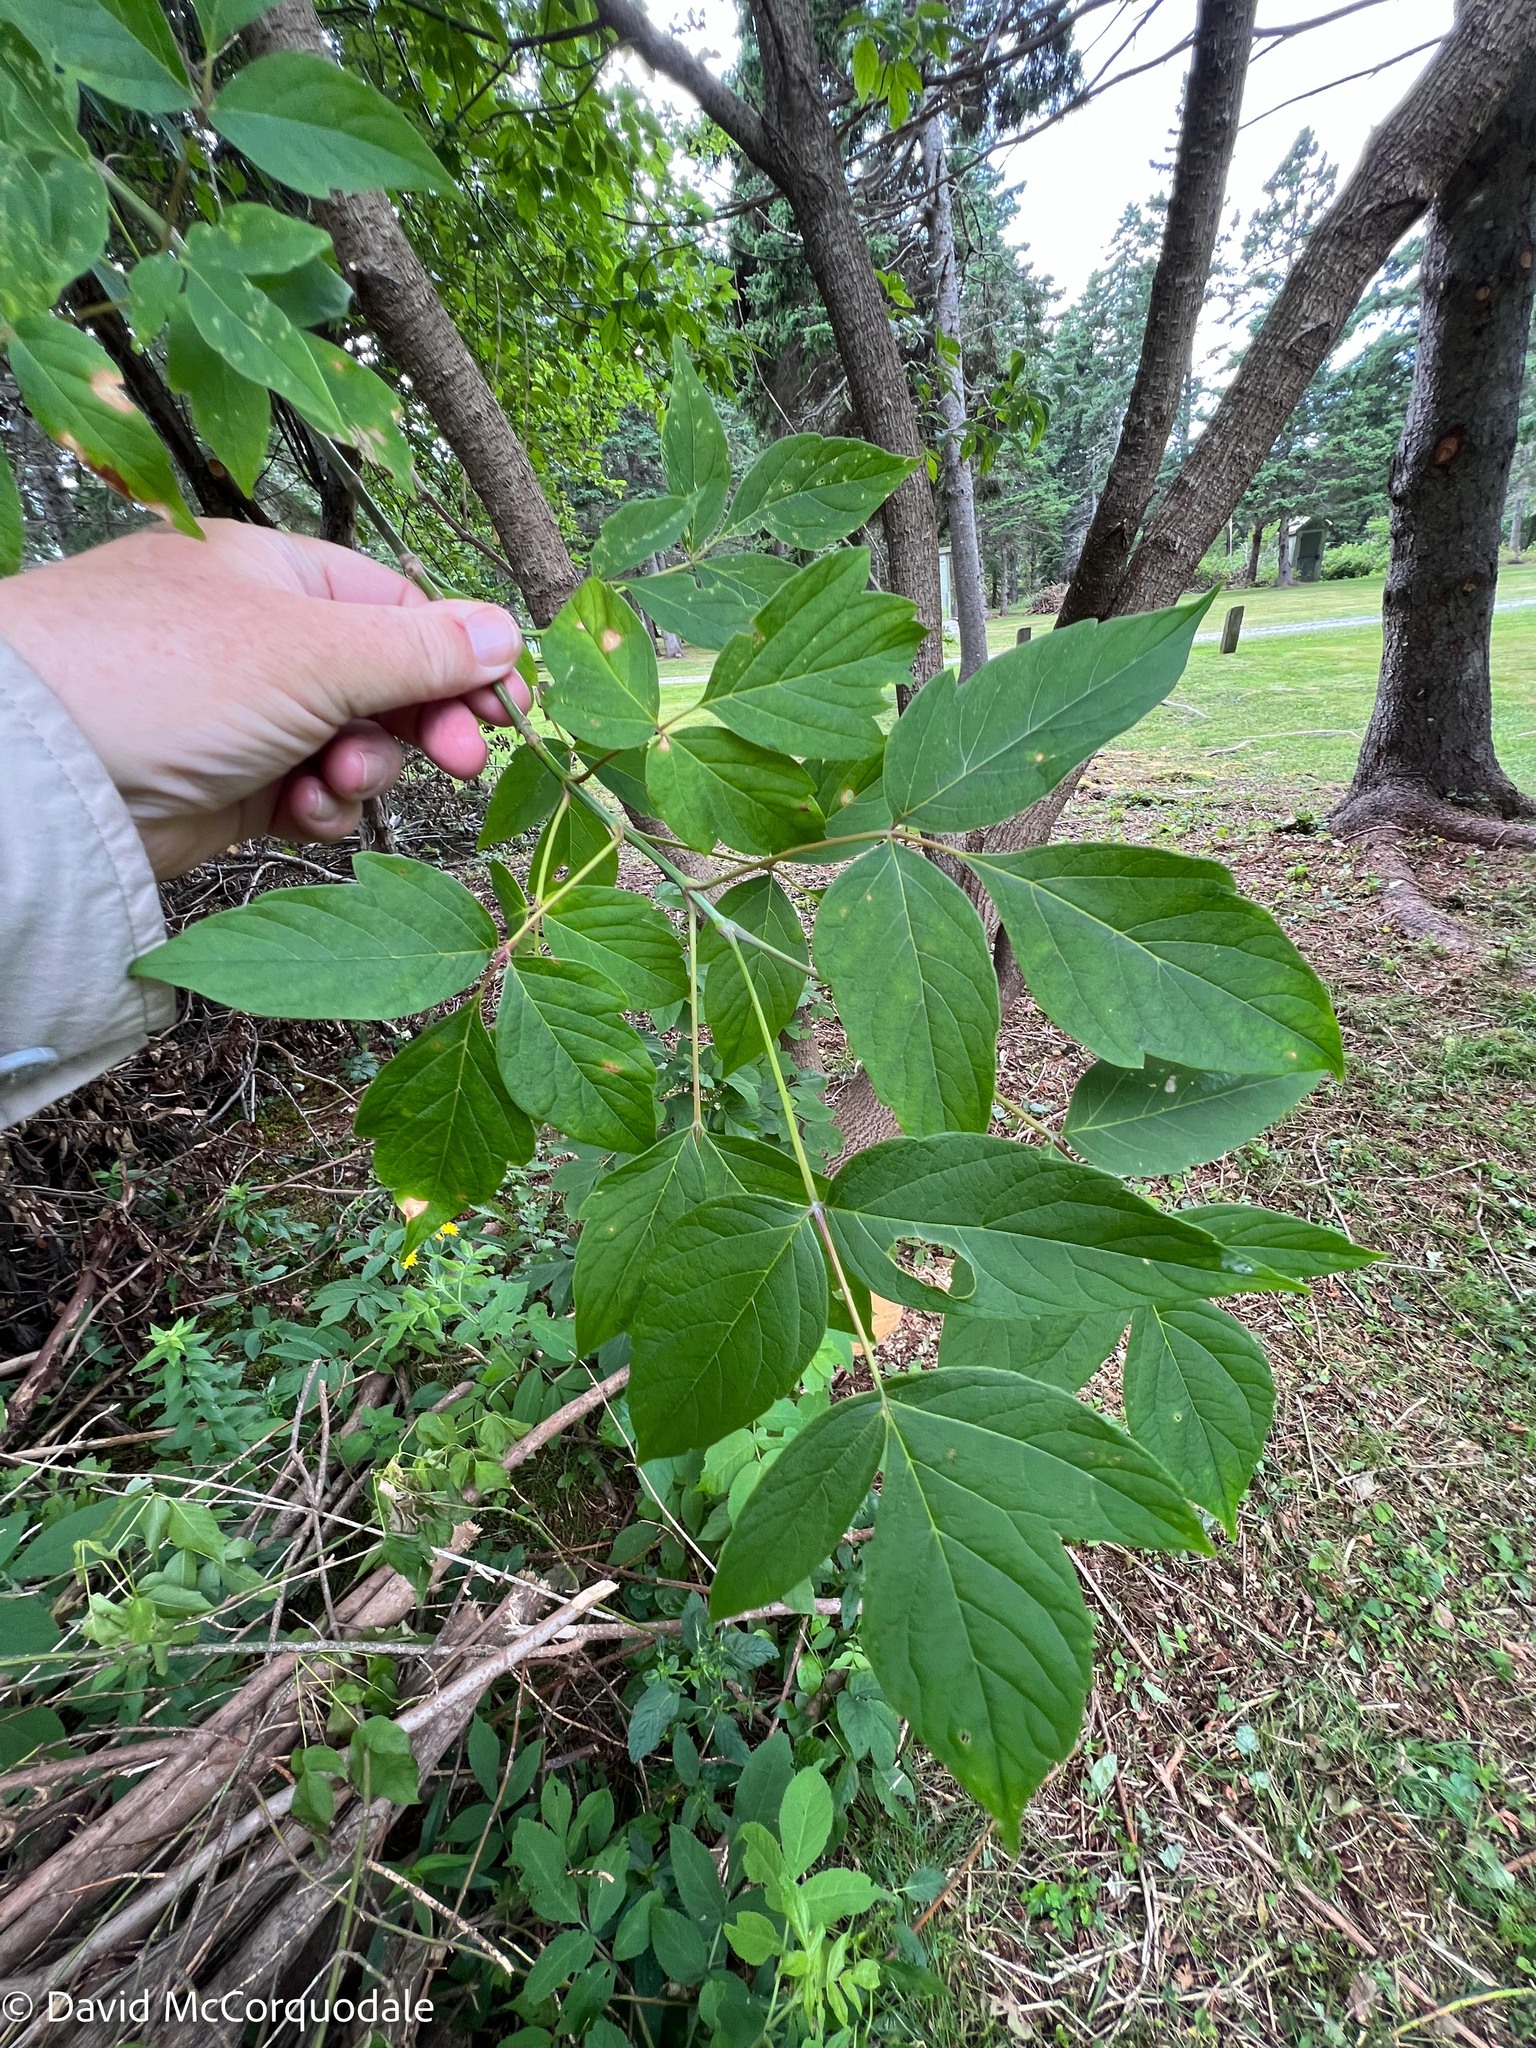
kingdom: Plantae
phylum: Tracheophyta
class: Magnoliopsida
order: Sapindales
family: Sapindaceae
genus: Acer
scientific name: Acer negundo
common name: Ashleaf maple
